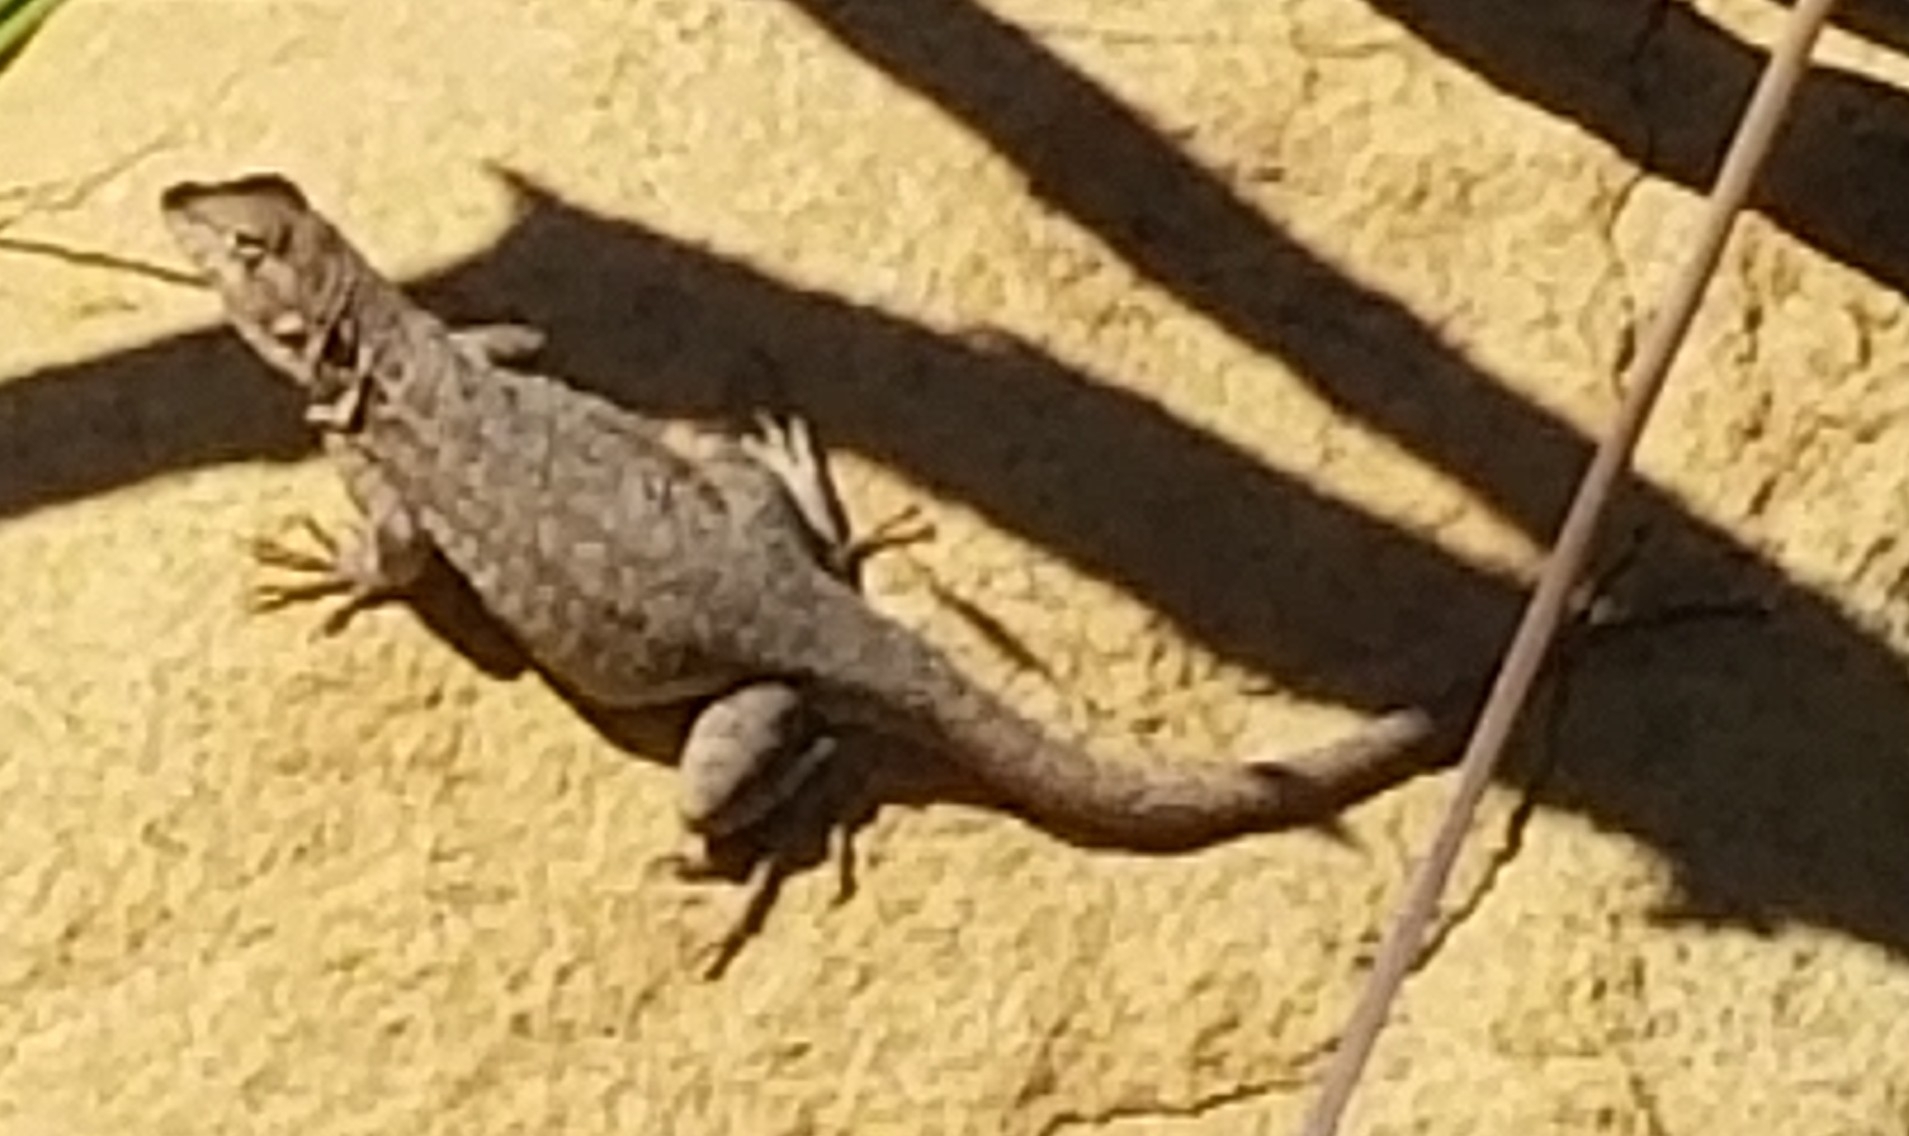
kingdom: Animalia
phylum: Chordata
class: Squamata
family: Phrynosomatidae
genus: Uta
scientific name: Uta stansburiana
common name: Side-blotched lizard
